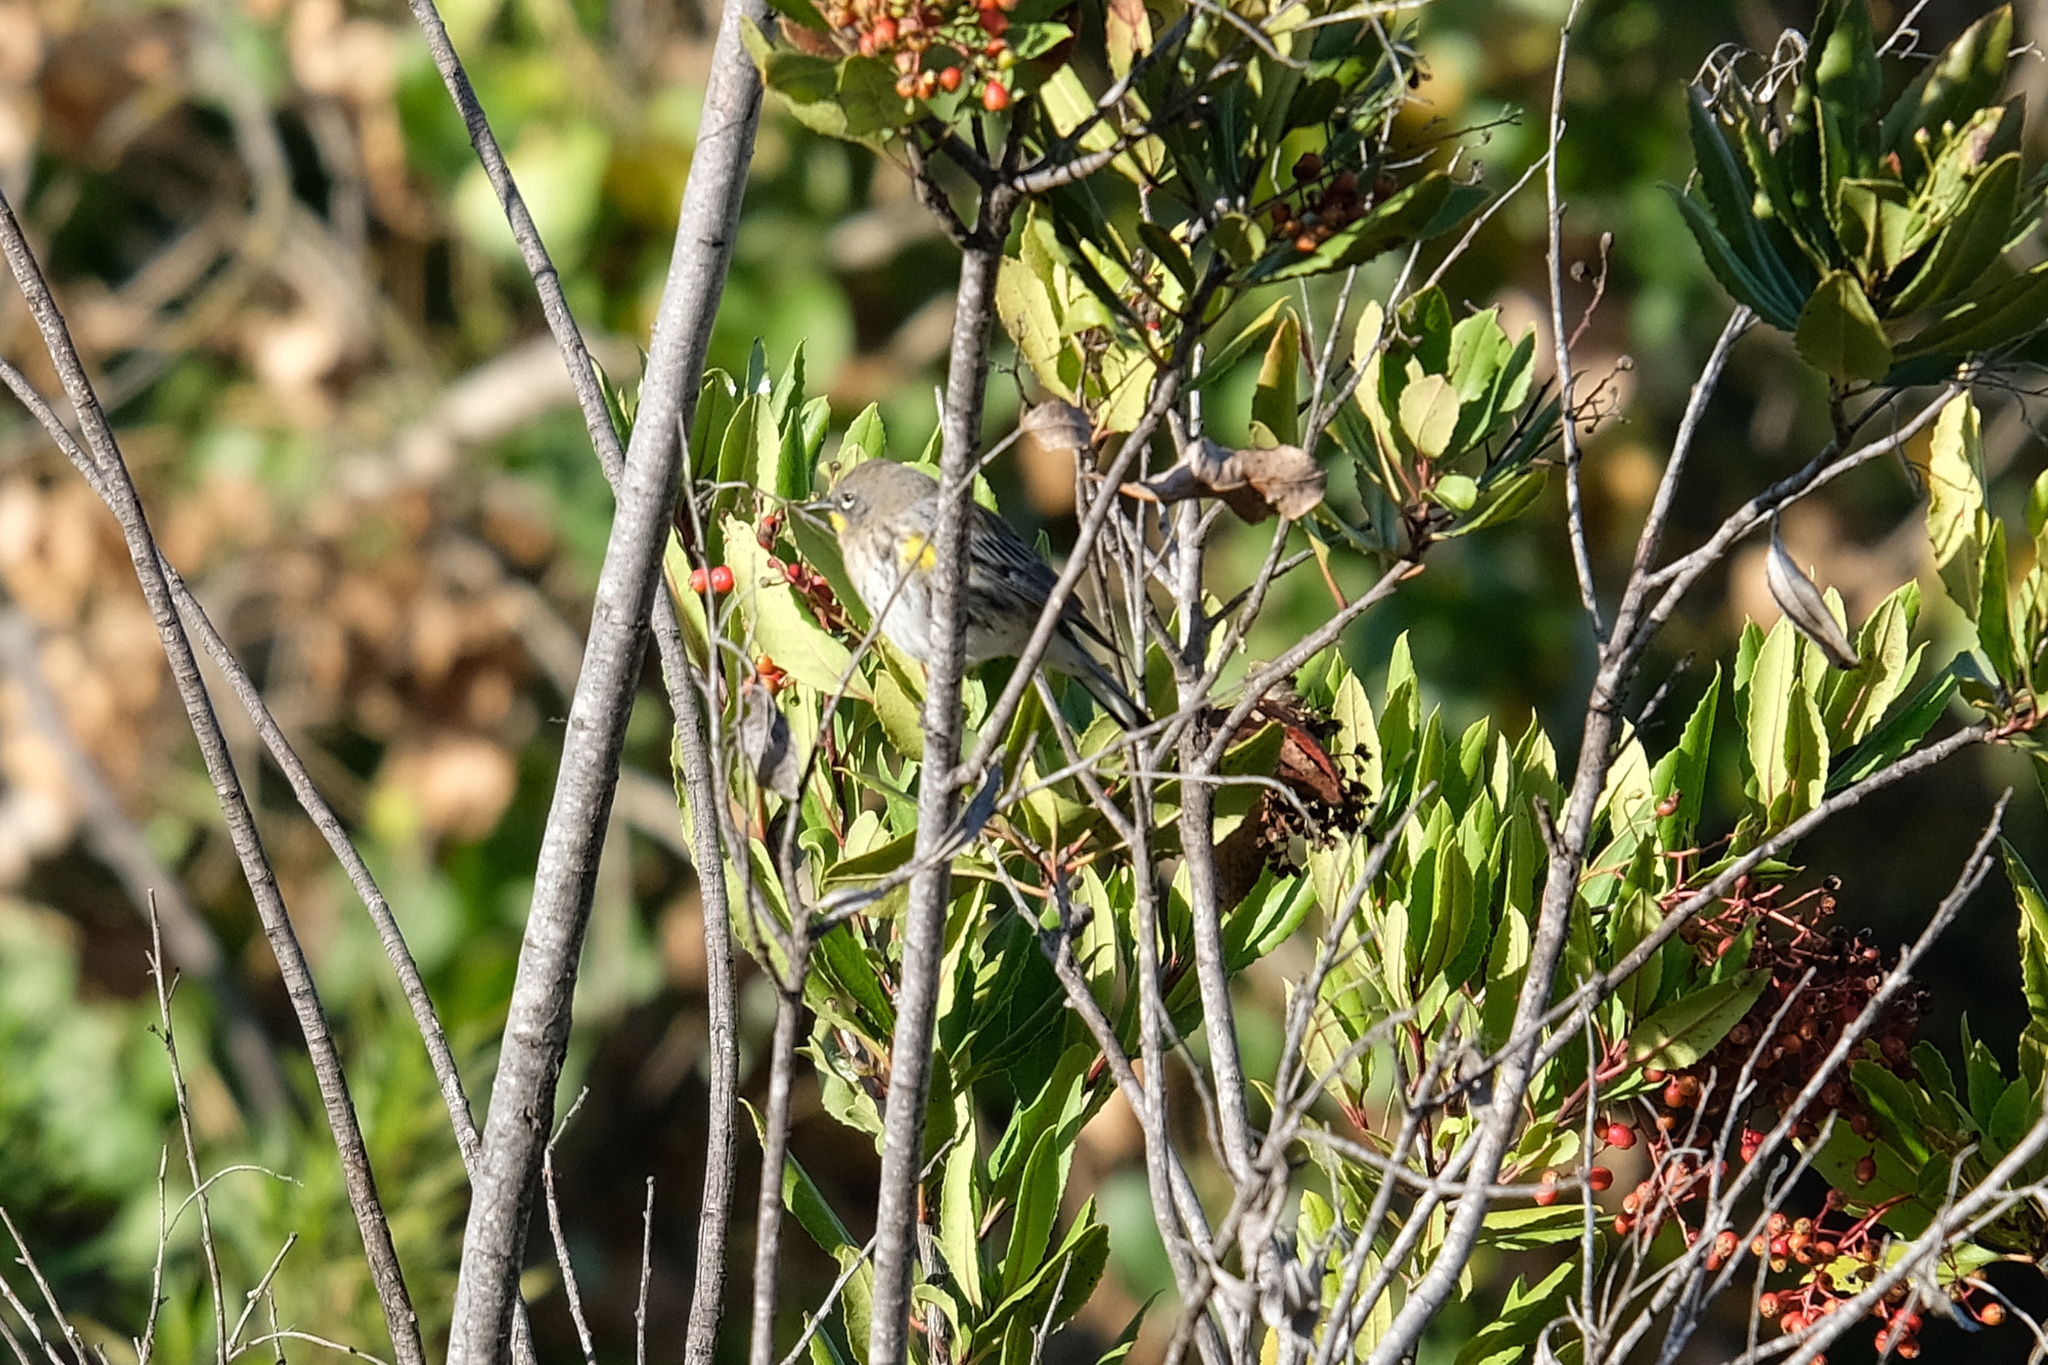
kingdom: Animalia
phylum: Chordata
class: Aves
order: Passeriformes
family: Parulidae
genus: Setophaga
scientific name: Setophaga auduboni
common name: Audubon's warbler
